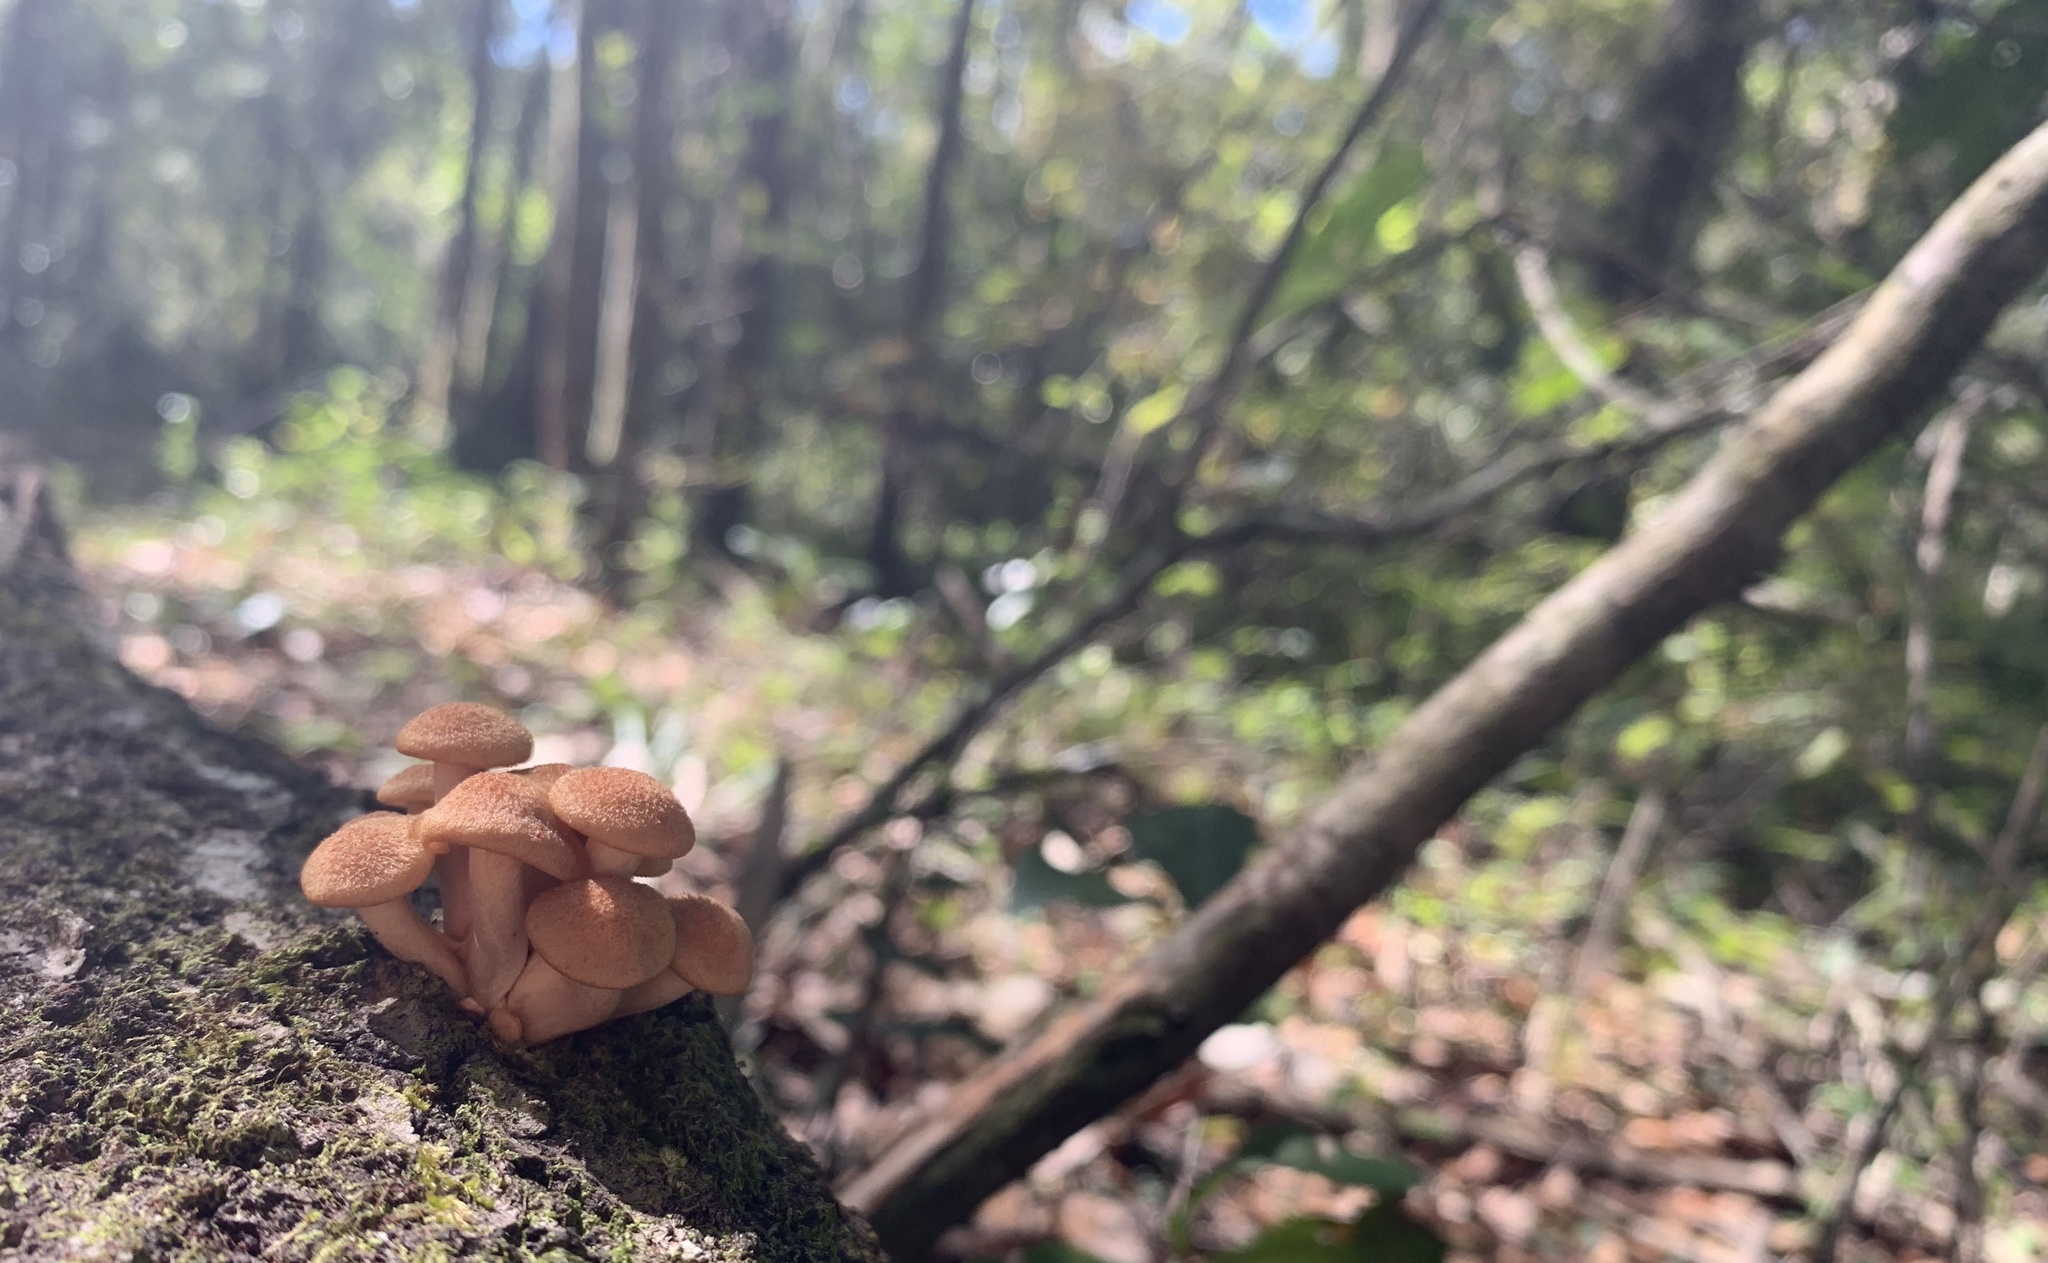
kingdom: Fungi
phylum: Basidiomycota
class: Agaricomycetes
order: Agaricales
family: Physalacriaceae
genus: Desarmillaria
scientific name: Desarmillaria caespitosa
